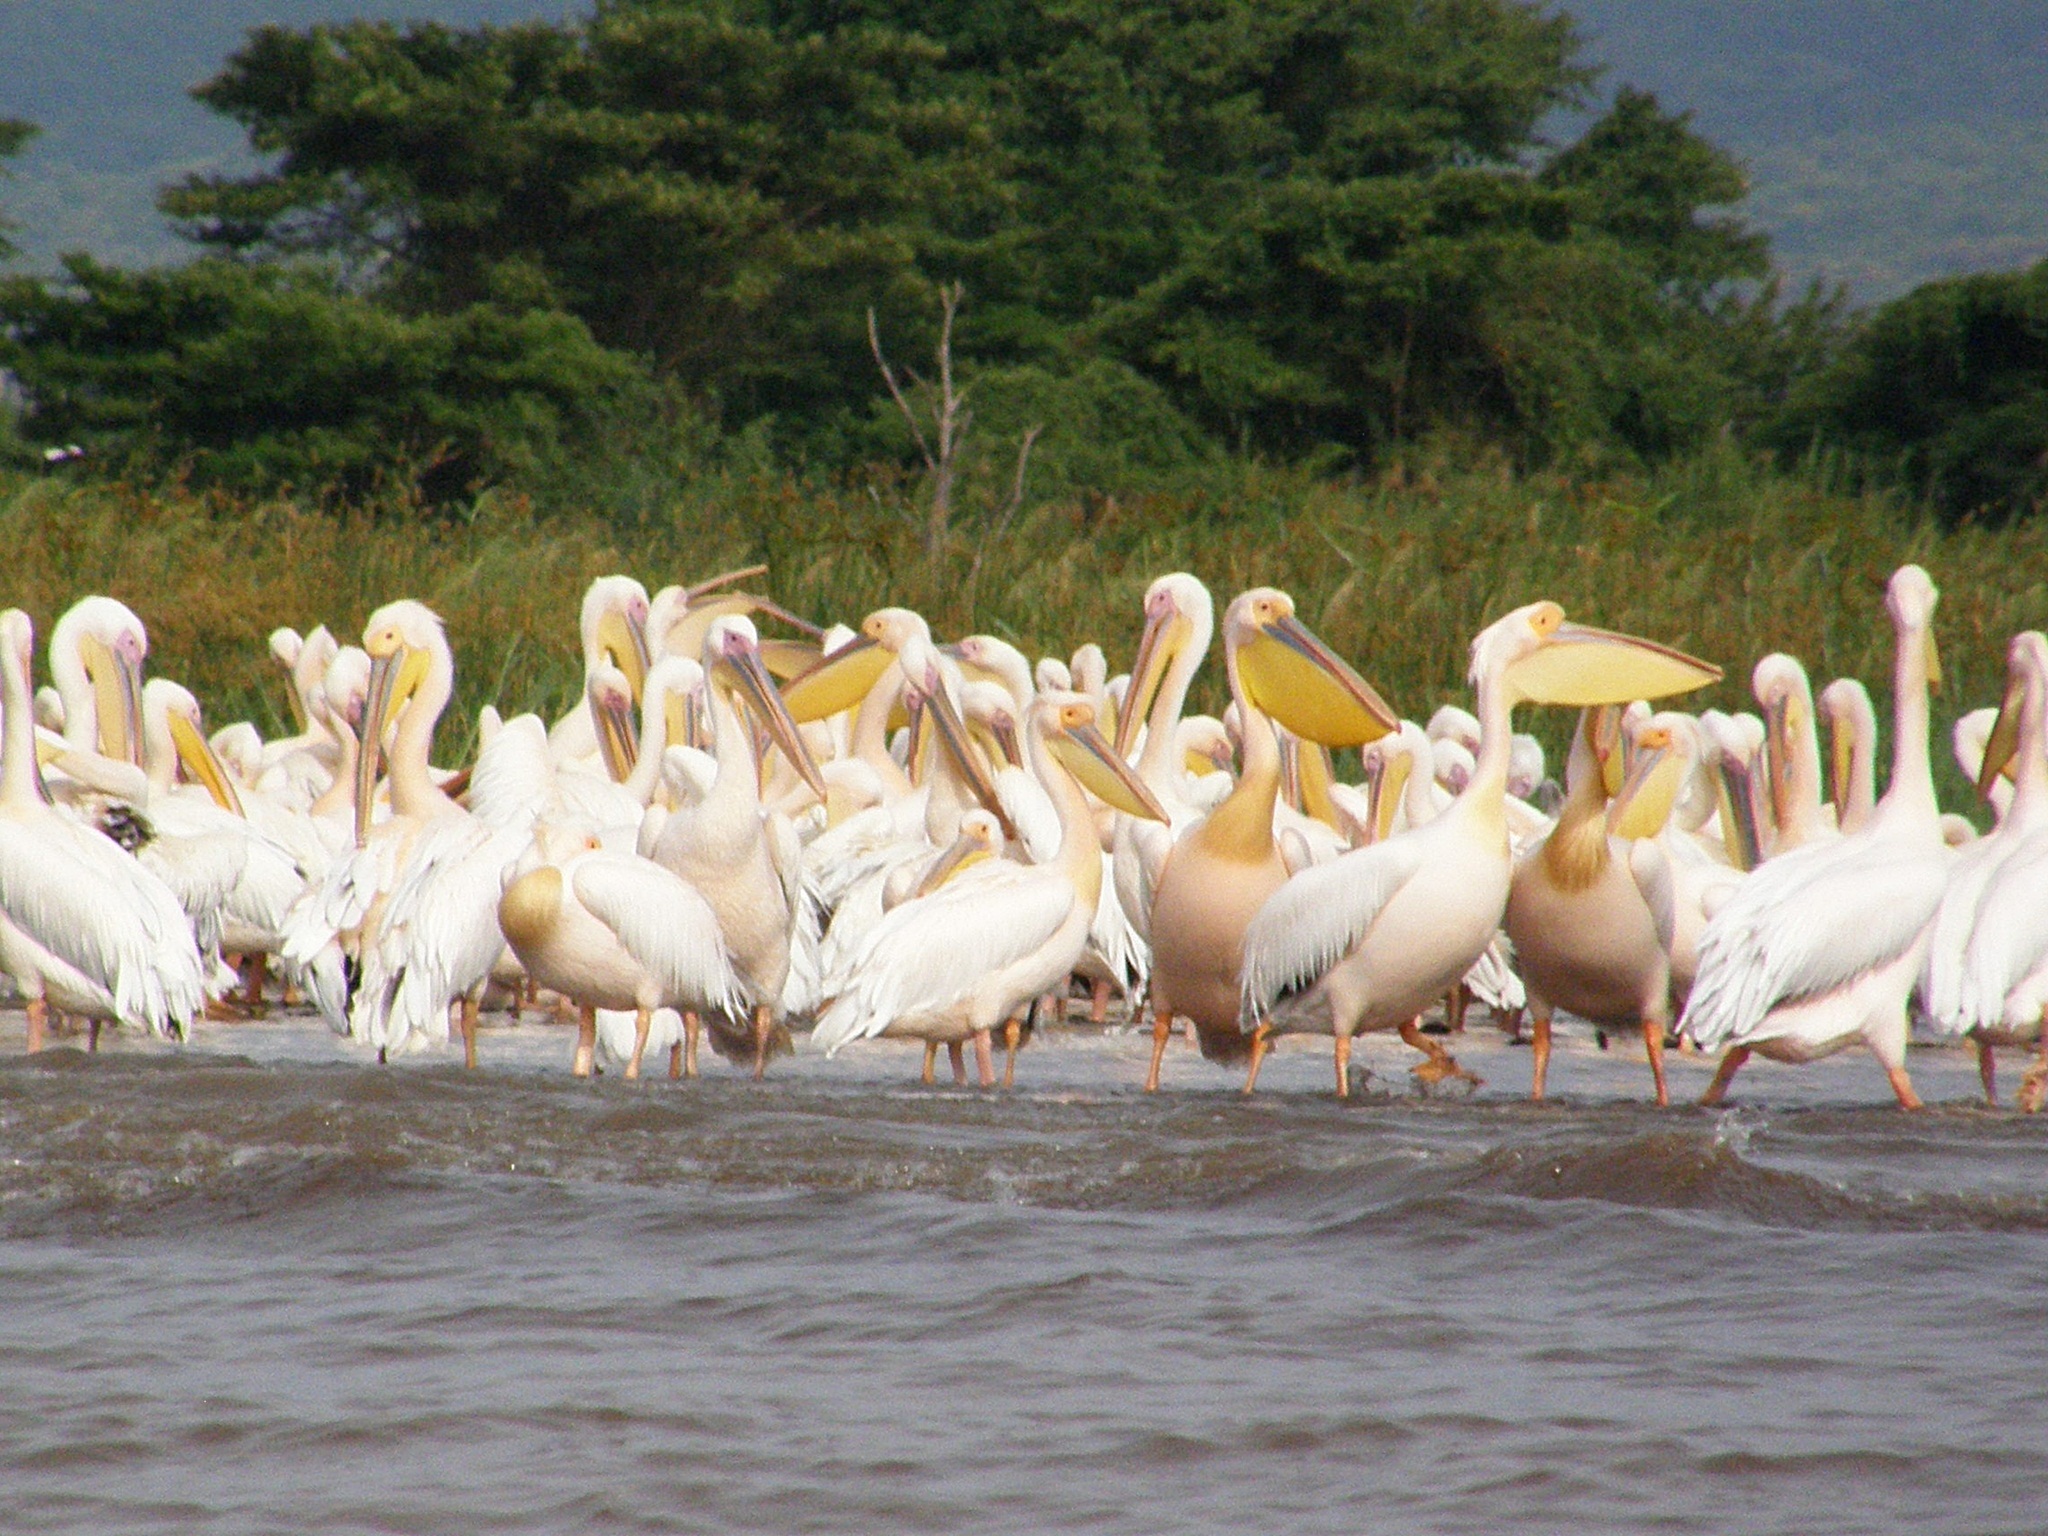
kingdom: Animalia
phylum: Chordata
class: Aves
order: Pelecaniformes
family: Pelecanidae
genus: Pelecanus
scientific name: Pelecanus onocrotalus
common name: Great white pelican
